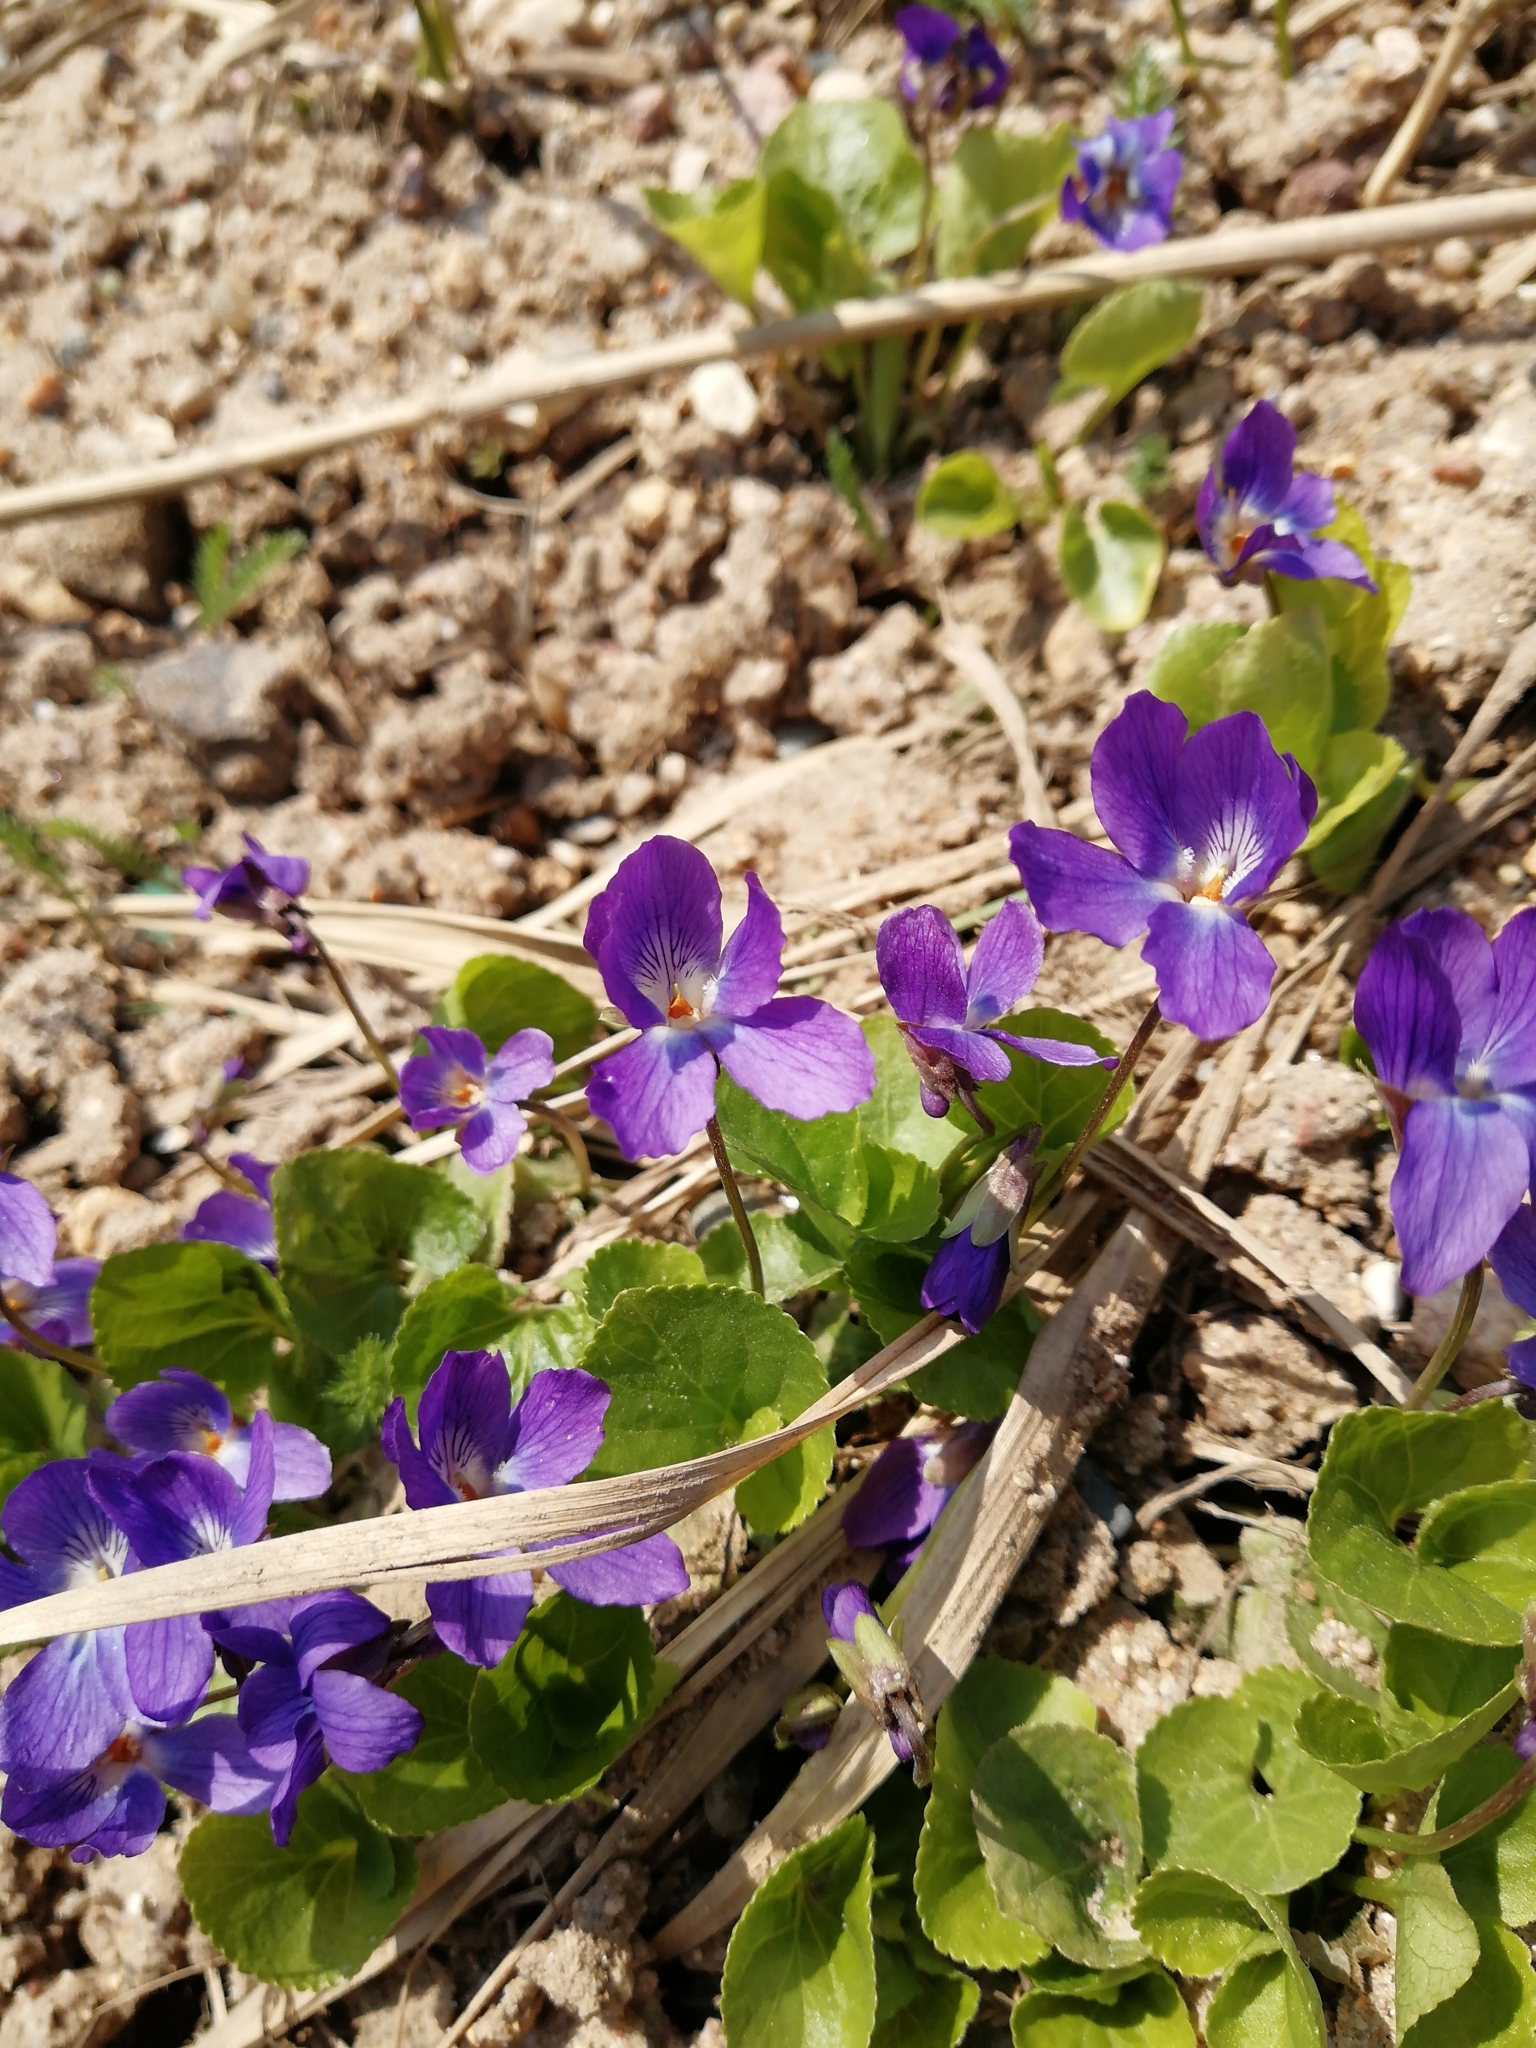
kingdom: Plantae
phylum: Tracheophyta
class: Magnoliopsida
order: Malpighiales
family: Violaceae
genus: Viola
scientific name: Viola odorata
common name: Sweet violet
